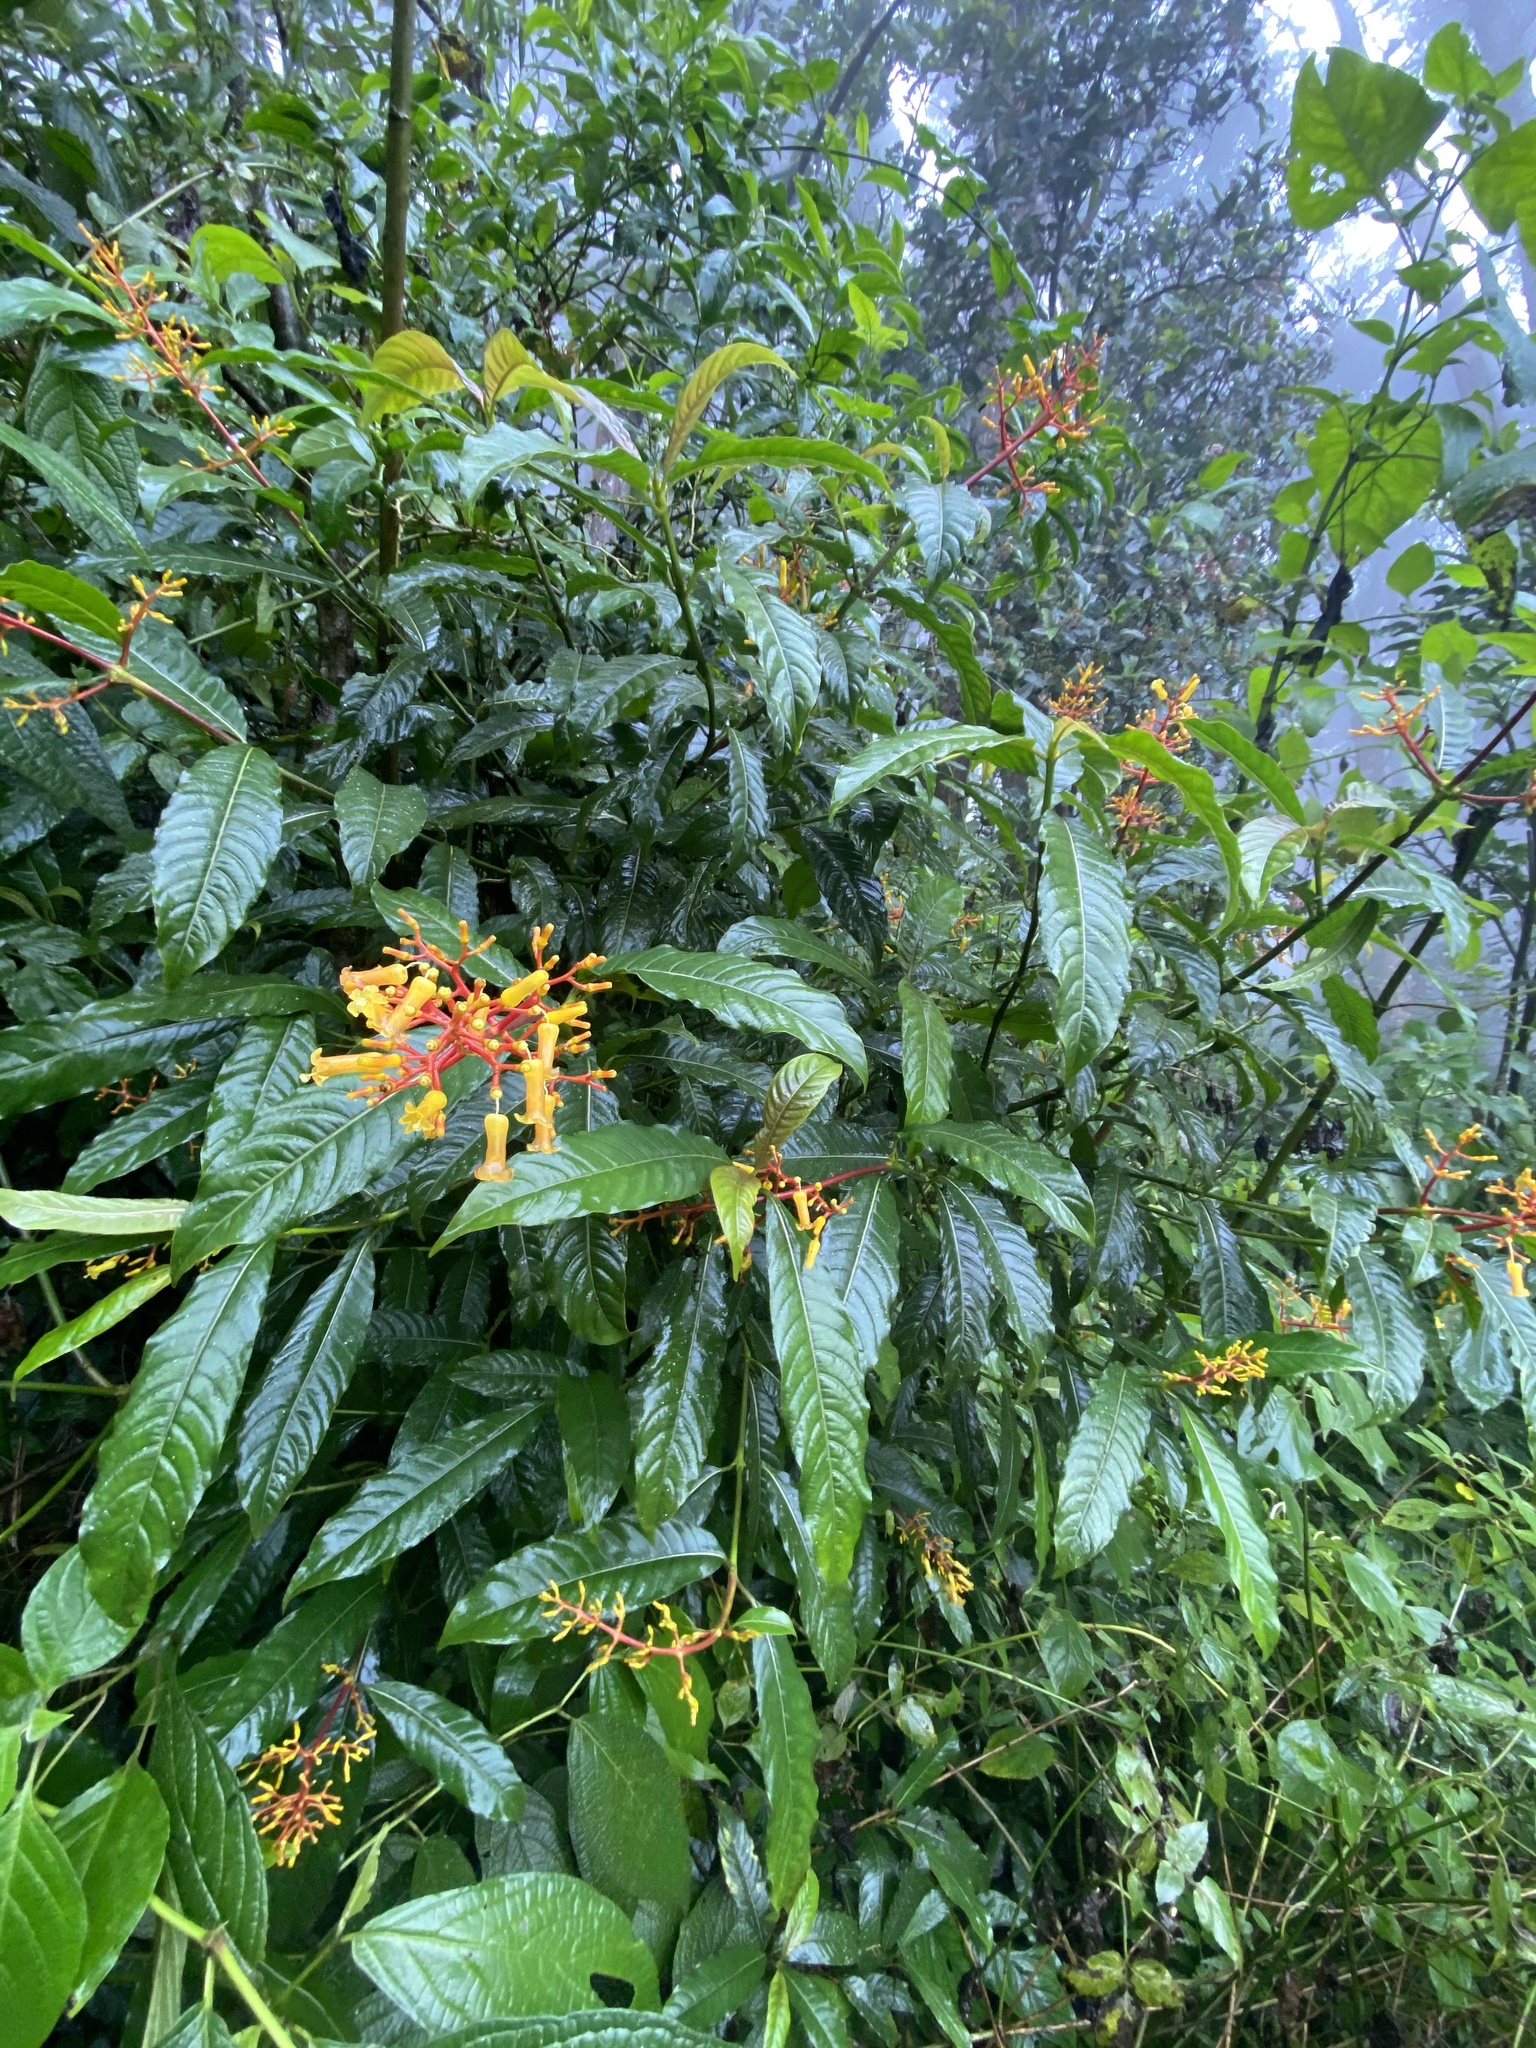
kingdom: Plantae
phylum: Tracheophyta
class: Magnoliopsida
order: Gentianales
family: Rubiaceae
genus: Palicourea
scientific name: Palicourea padifolia
